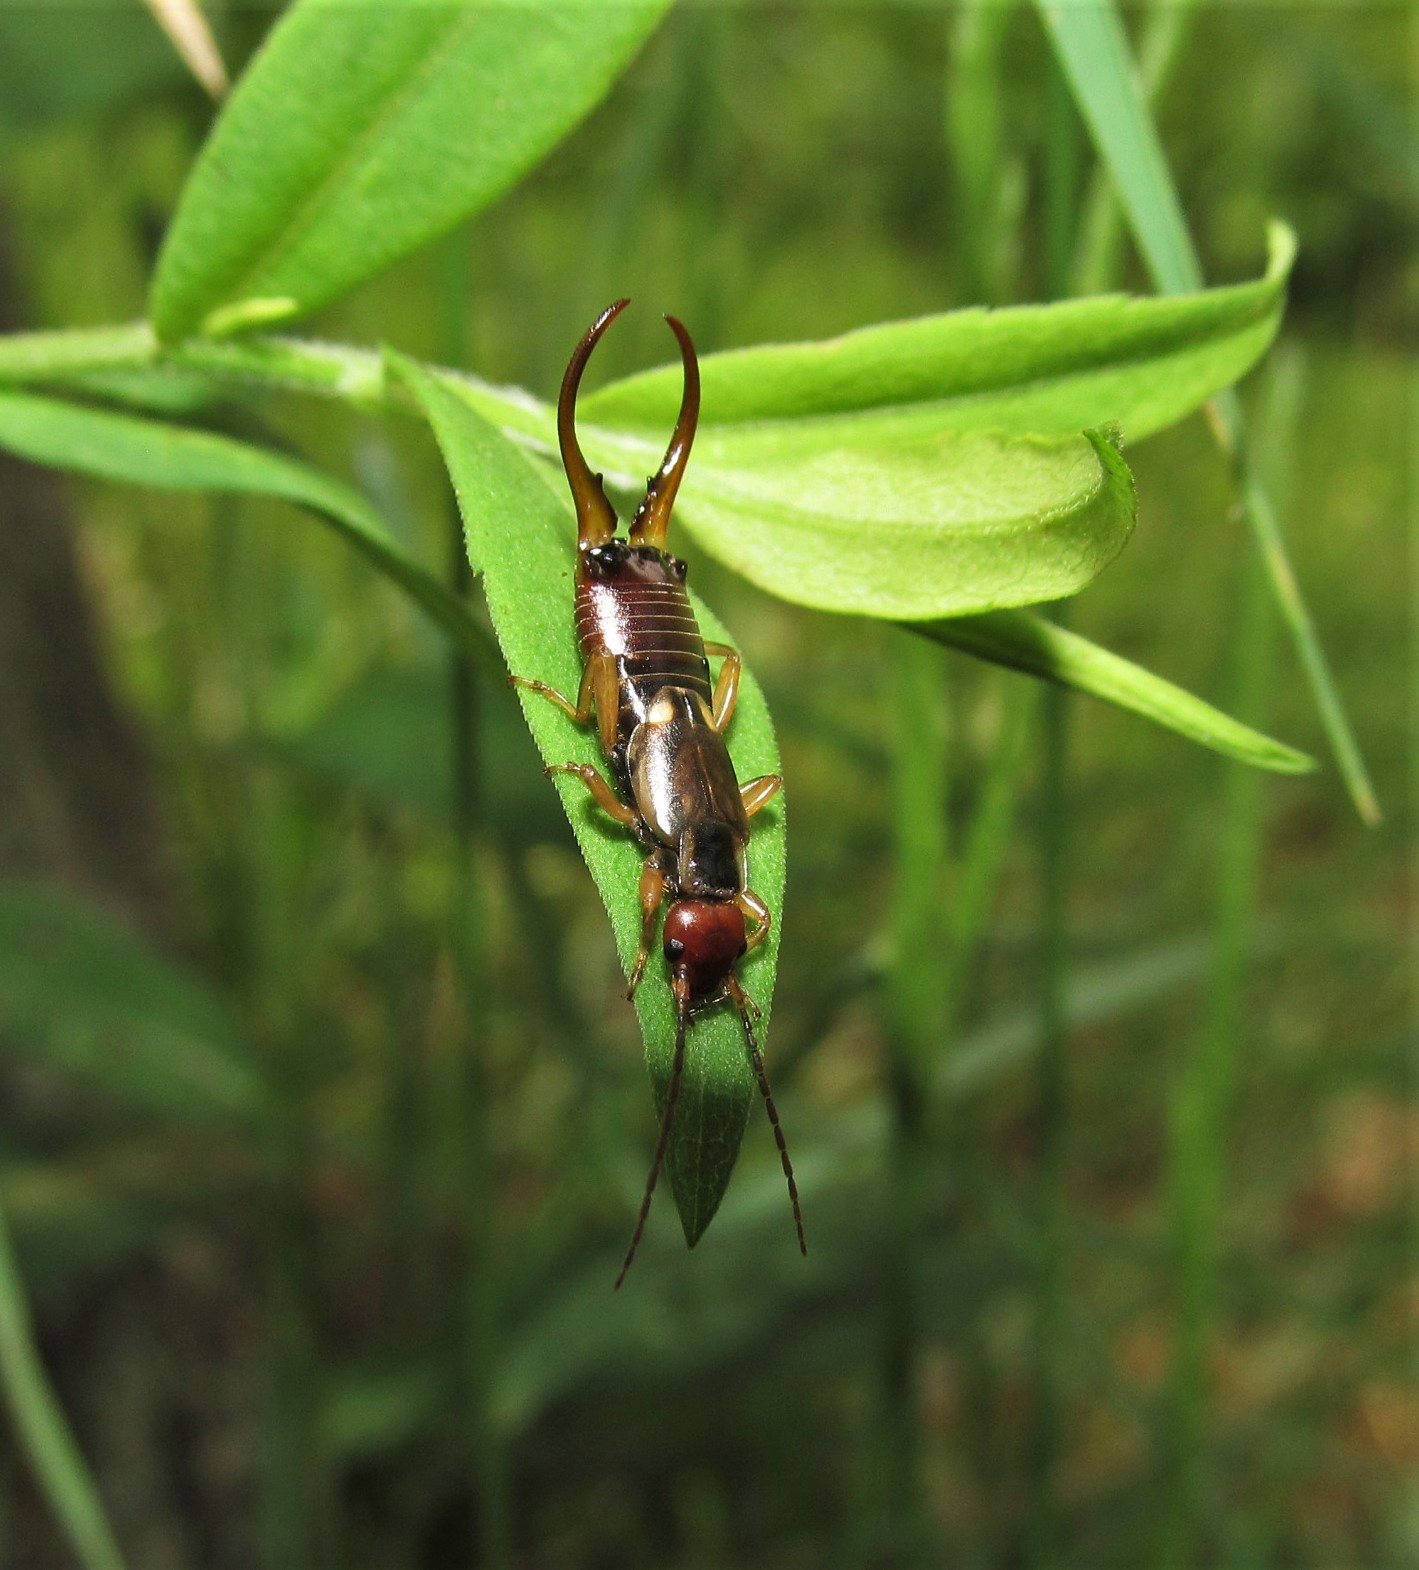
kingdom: Animalia
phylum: Arthropoda
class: Insecta
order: Dermaptera
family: Forficulidae
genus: Forficula
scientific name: Forficula
